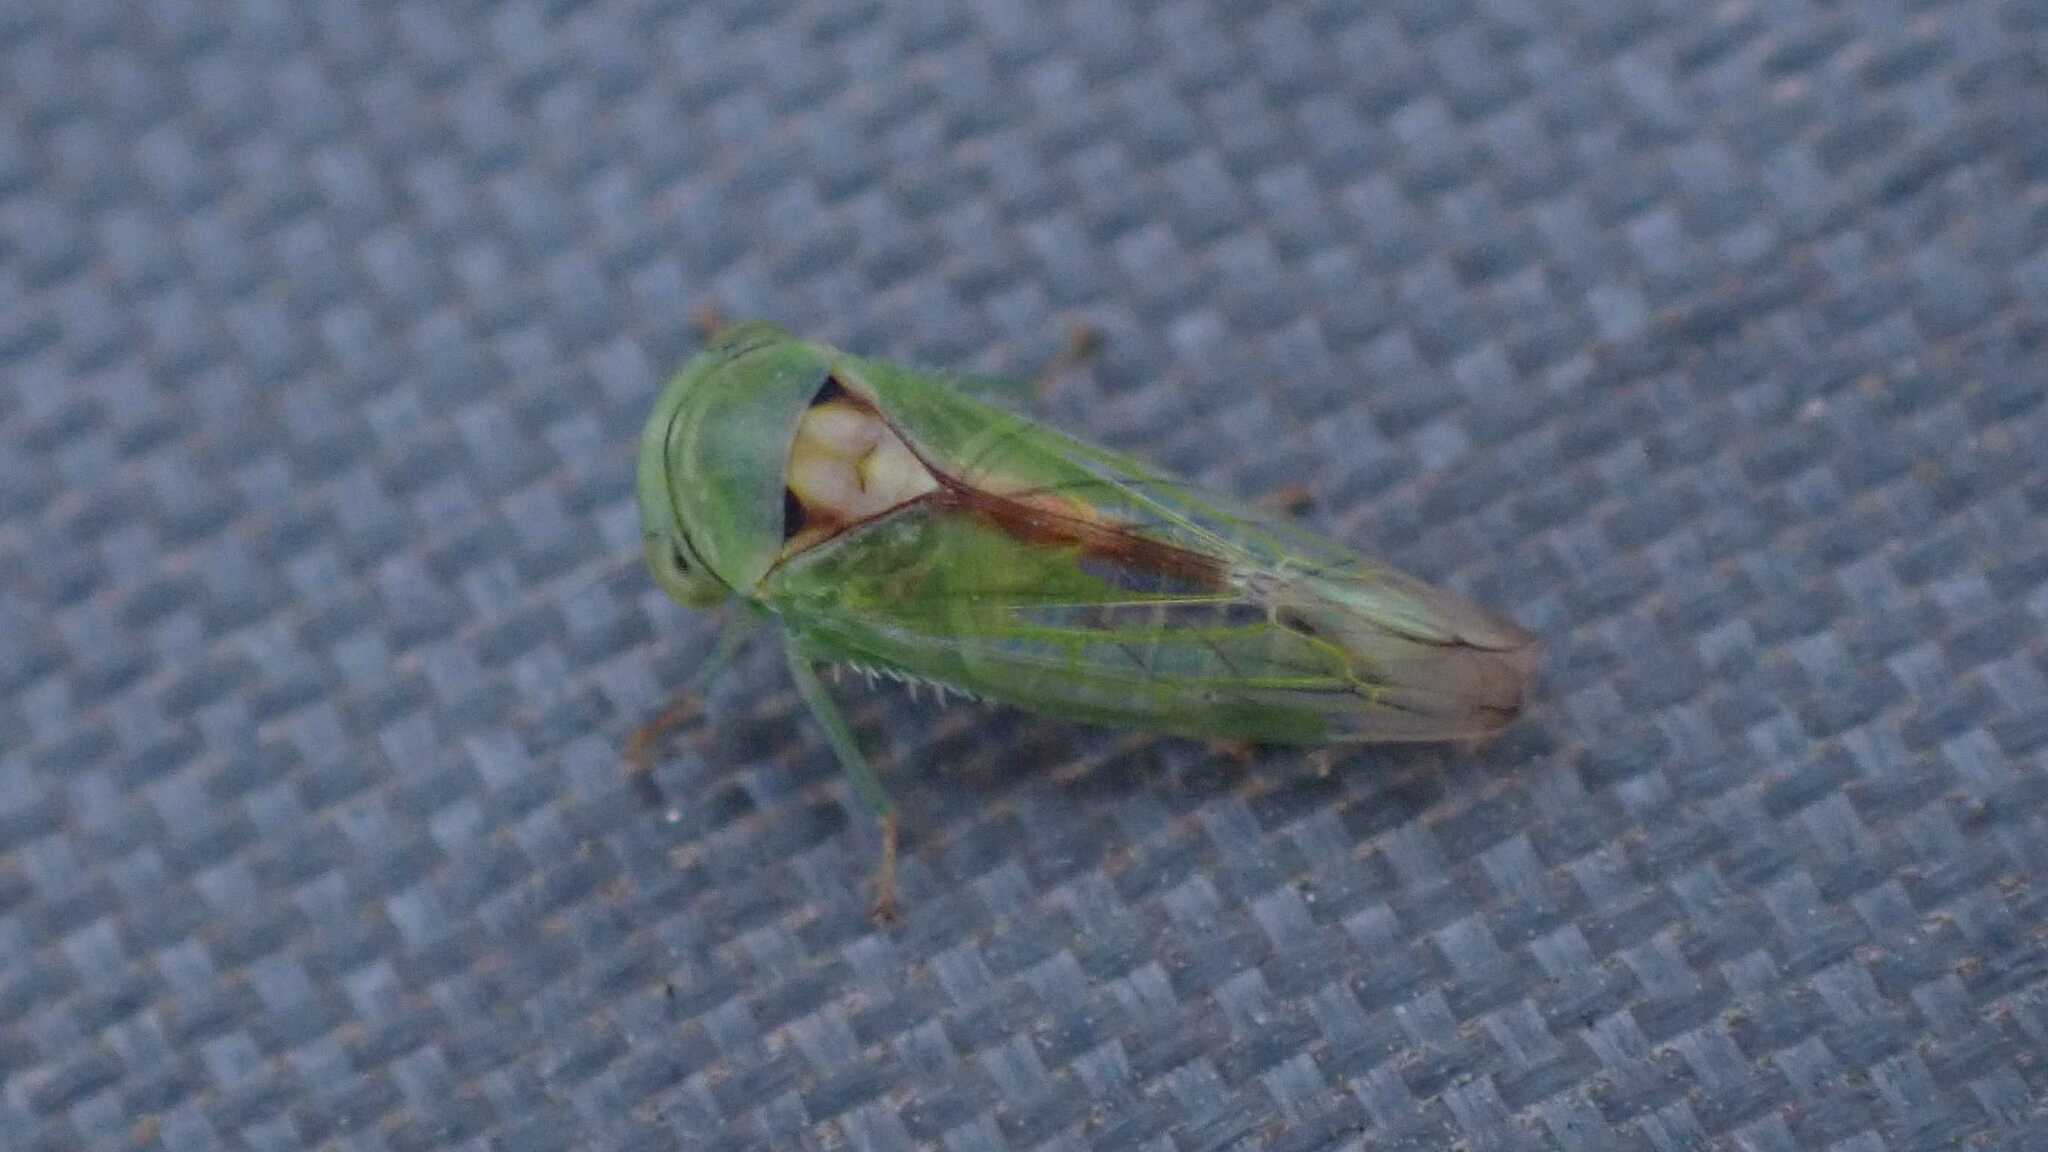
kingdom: Animalia
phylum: Arthropoda
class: Insecta
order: Hemiptera
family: Cicadellidae
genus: Viridicerus
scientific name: Viridicerus ustulatus
